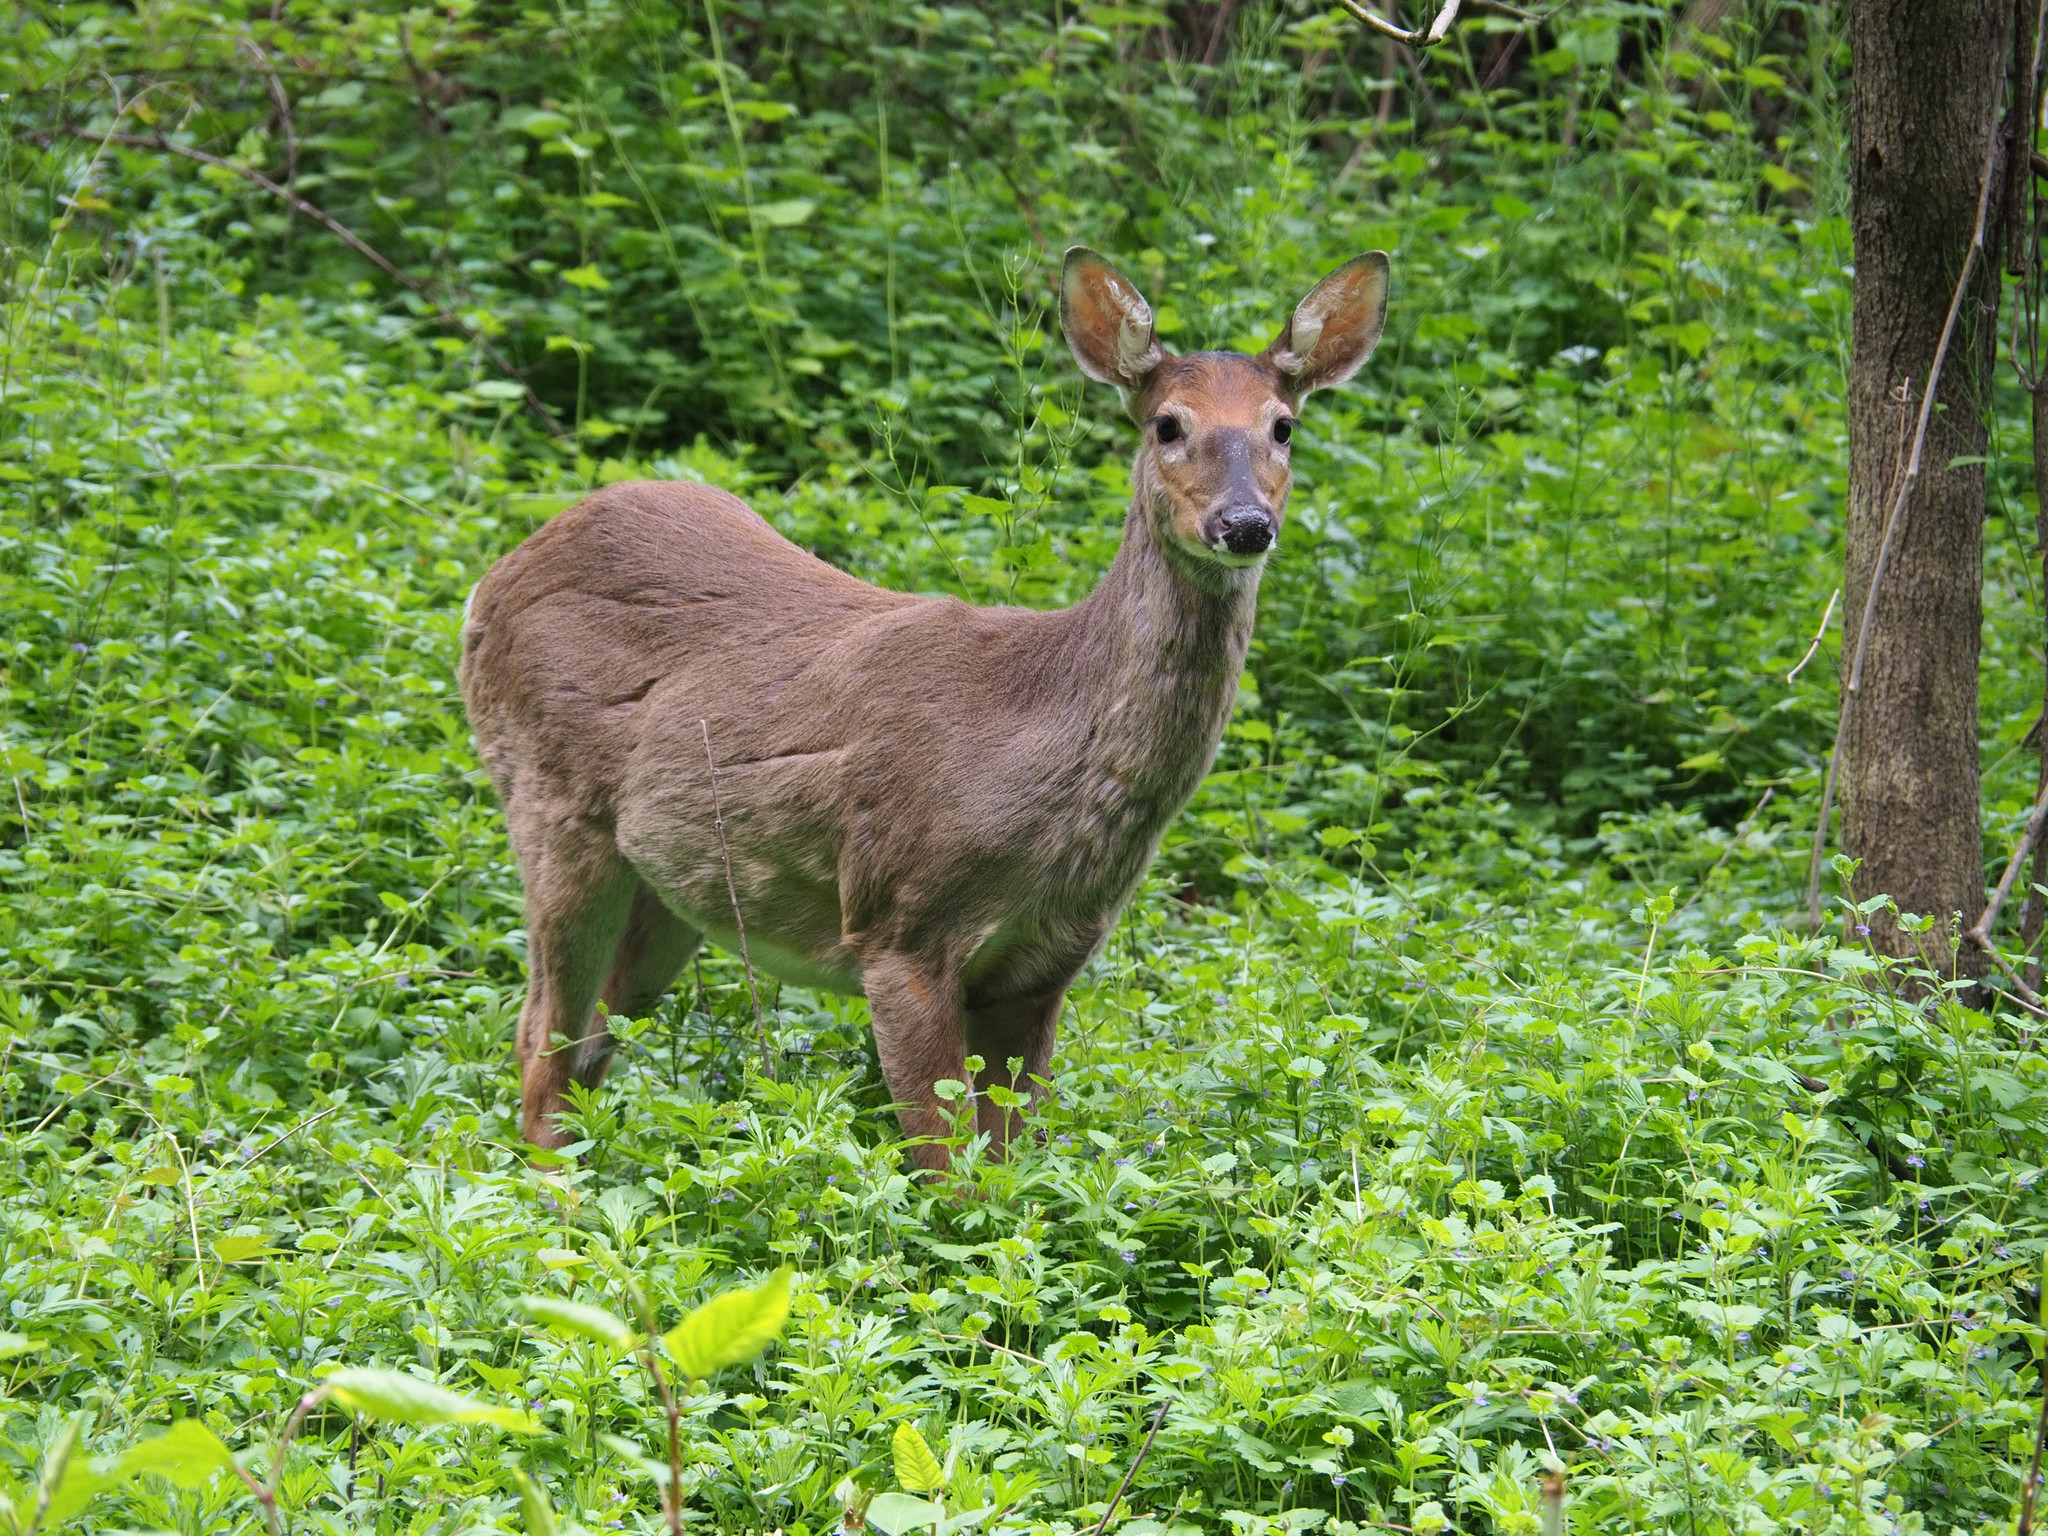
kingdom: Animalia
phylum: Chordata
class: Mammalia
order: Artiodactyla
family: Cervidae
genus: Odocoileus
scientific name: Odocoileus virginianus
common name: White-tailed deer
